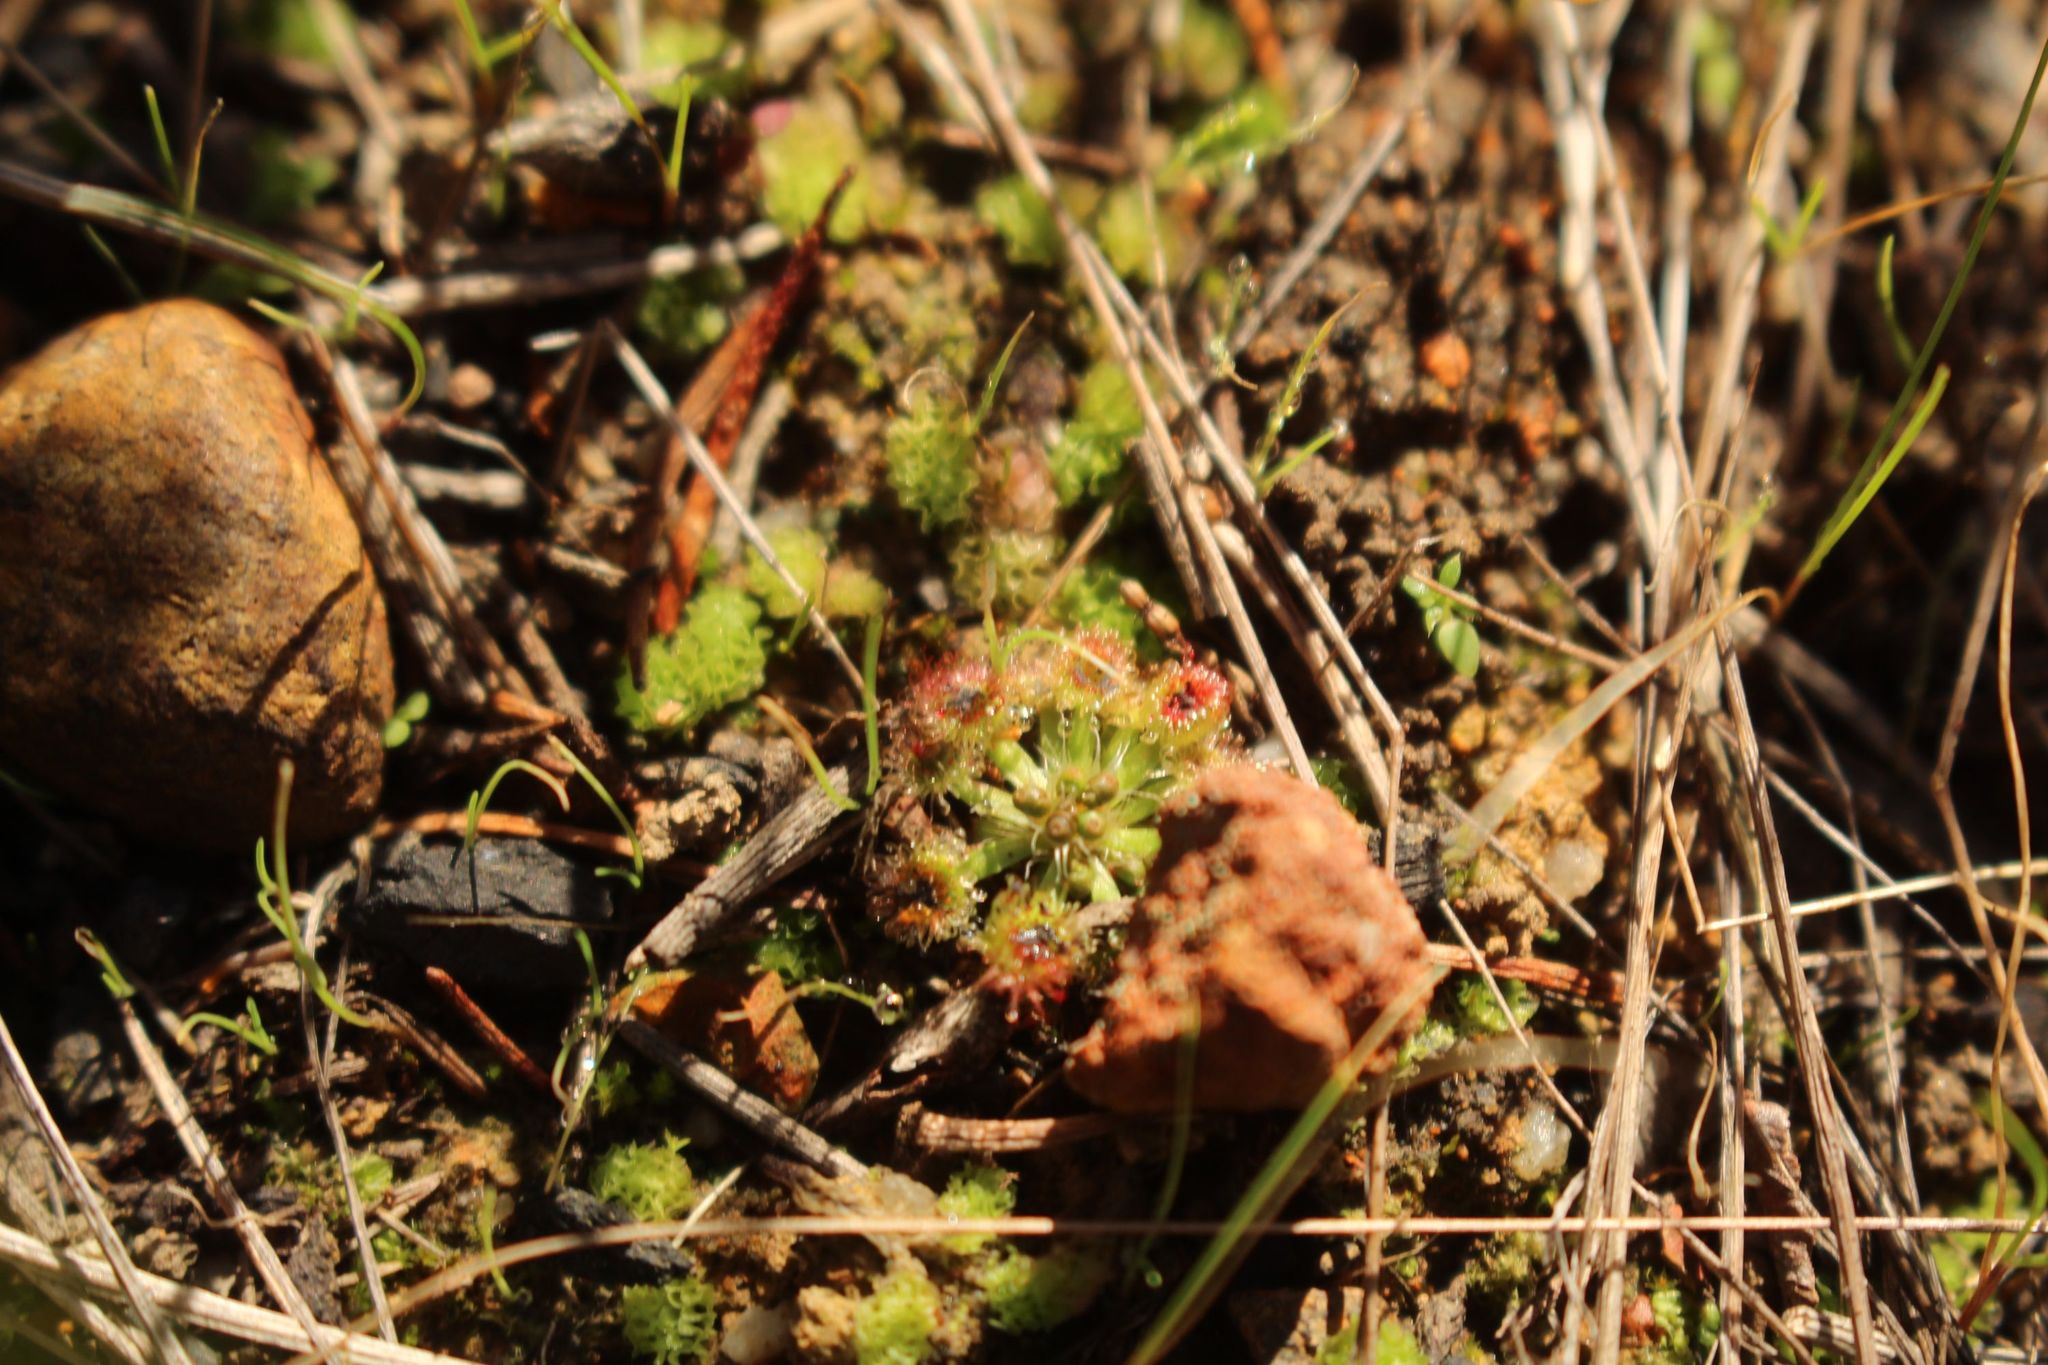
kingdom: Plantae
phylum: Tracheophyta
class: Magnoliopsida
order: Caryophyllales
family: Droseraceae
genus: Drosera
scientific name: Drosera spilos
